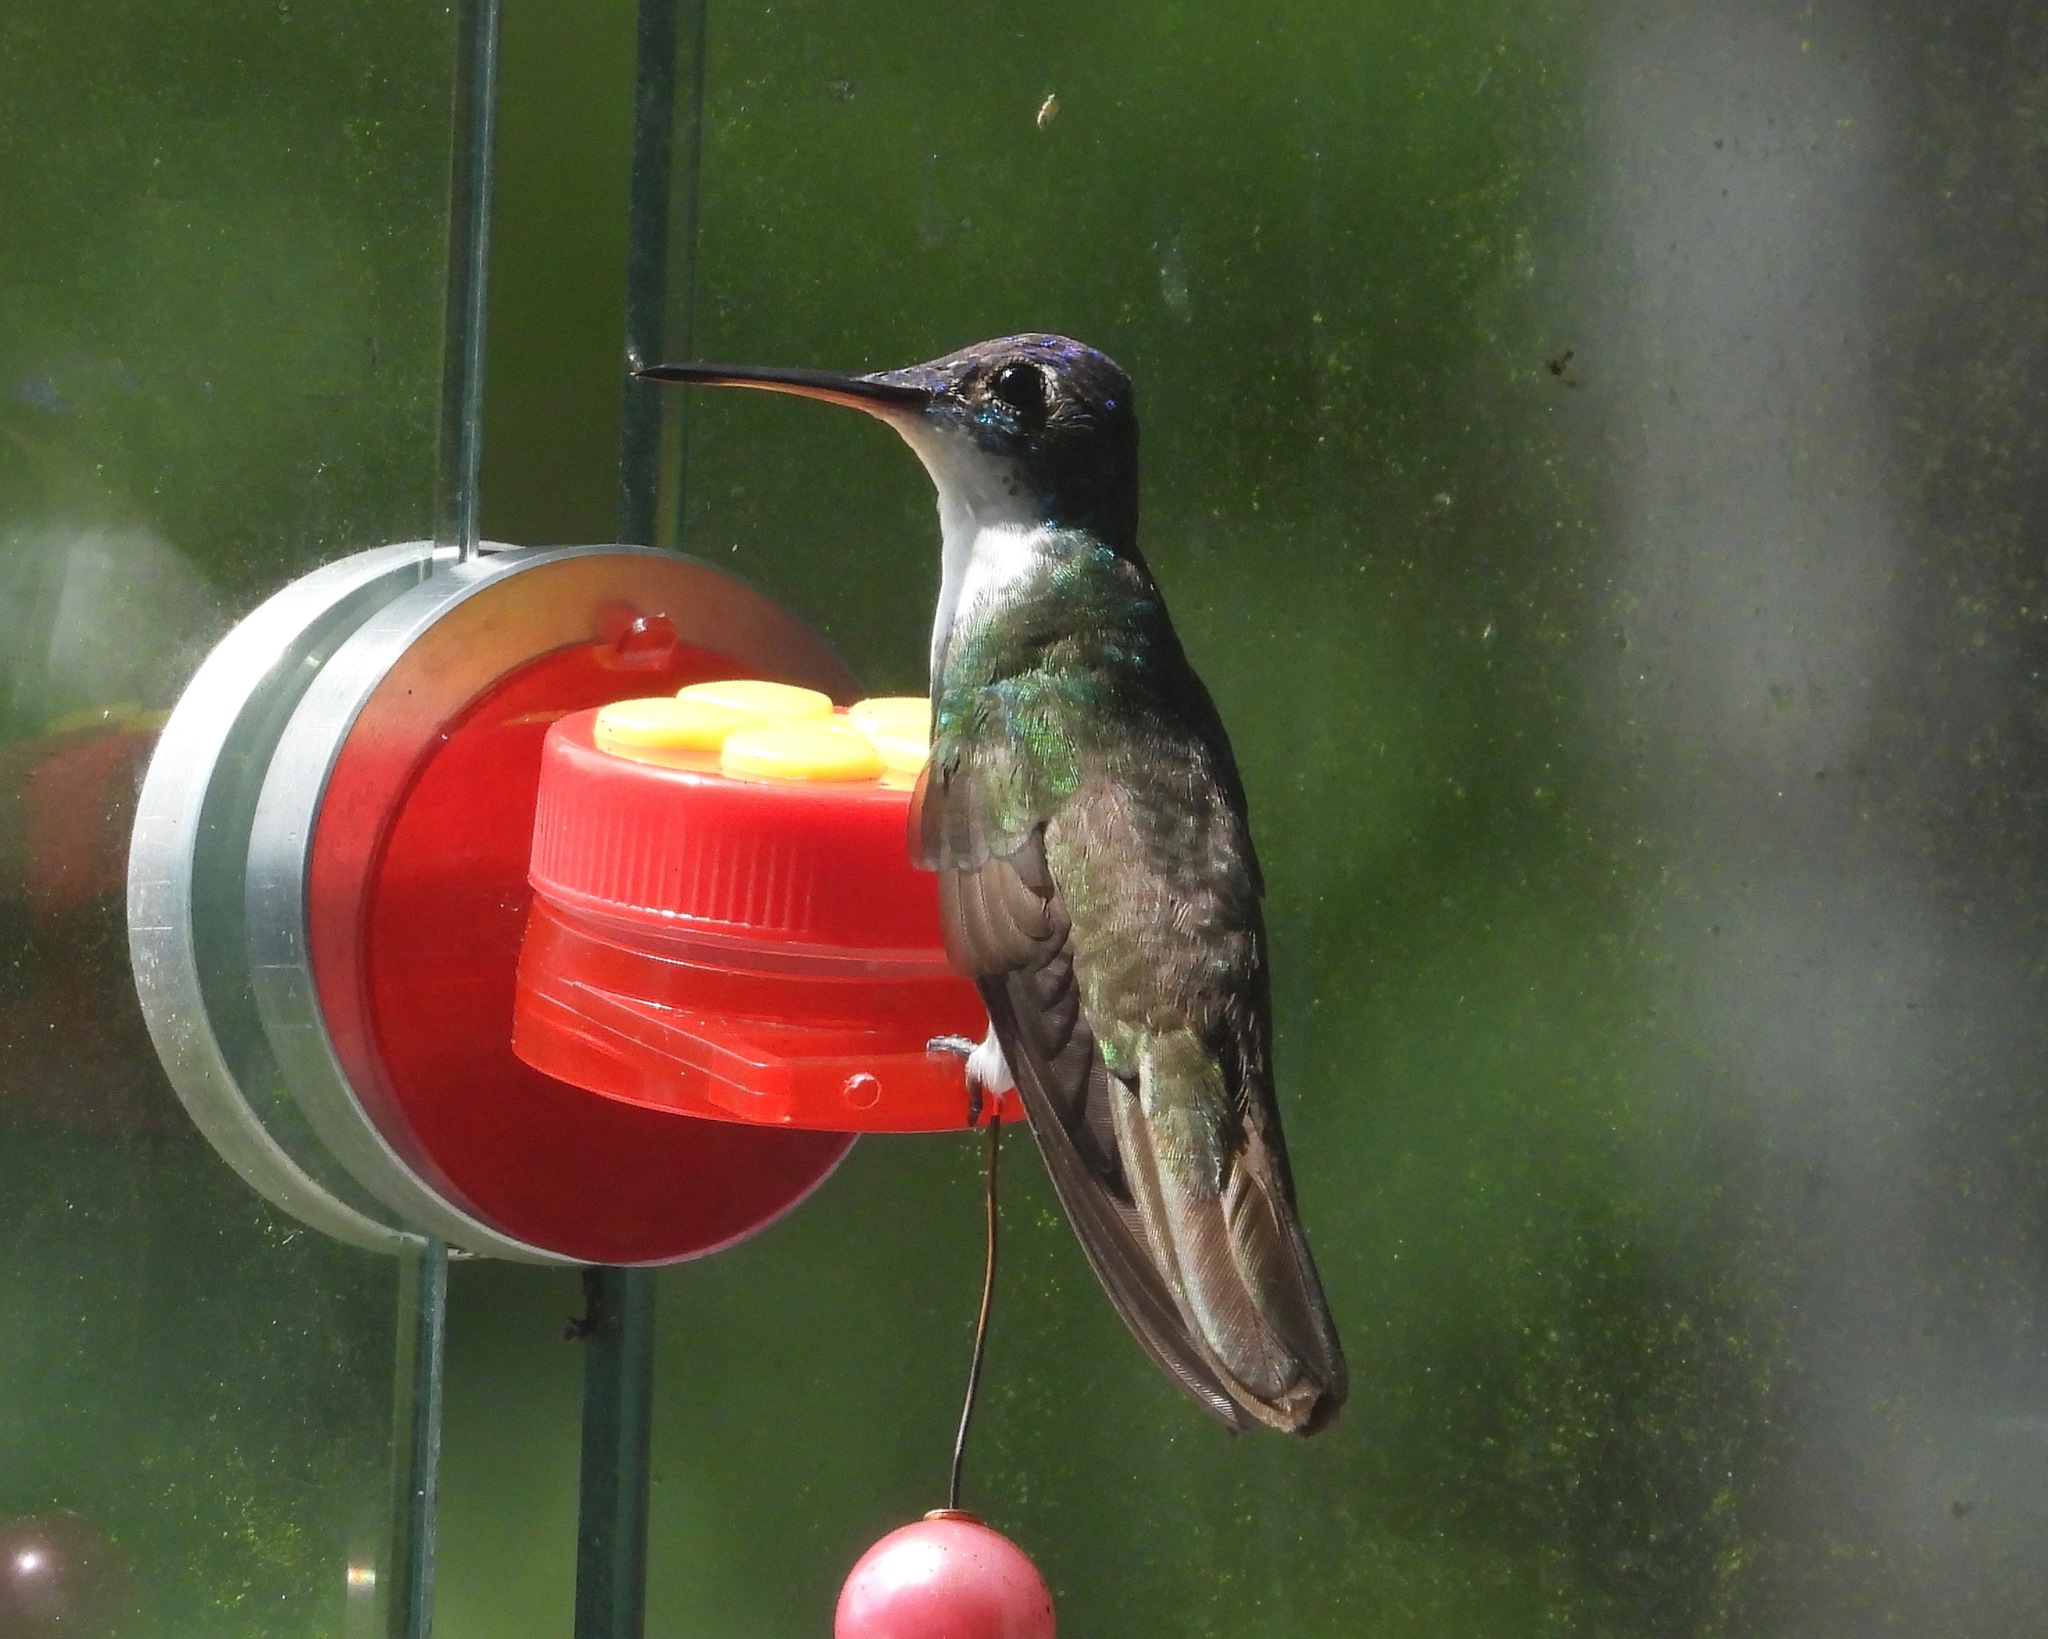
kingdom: Animalia
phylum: Chordata
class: Aves
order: Apodiformes
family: Trochilidae
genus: Saucerottia
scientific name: Saucerottia cyanocephala
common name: Azure-crowned hummingbird
